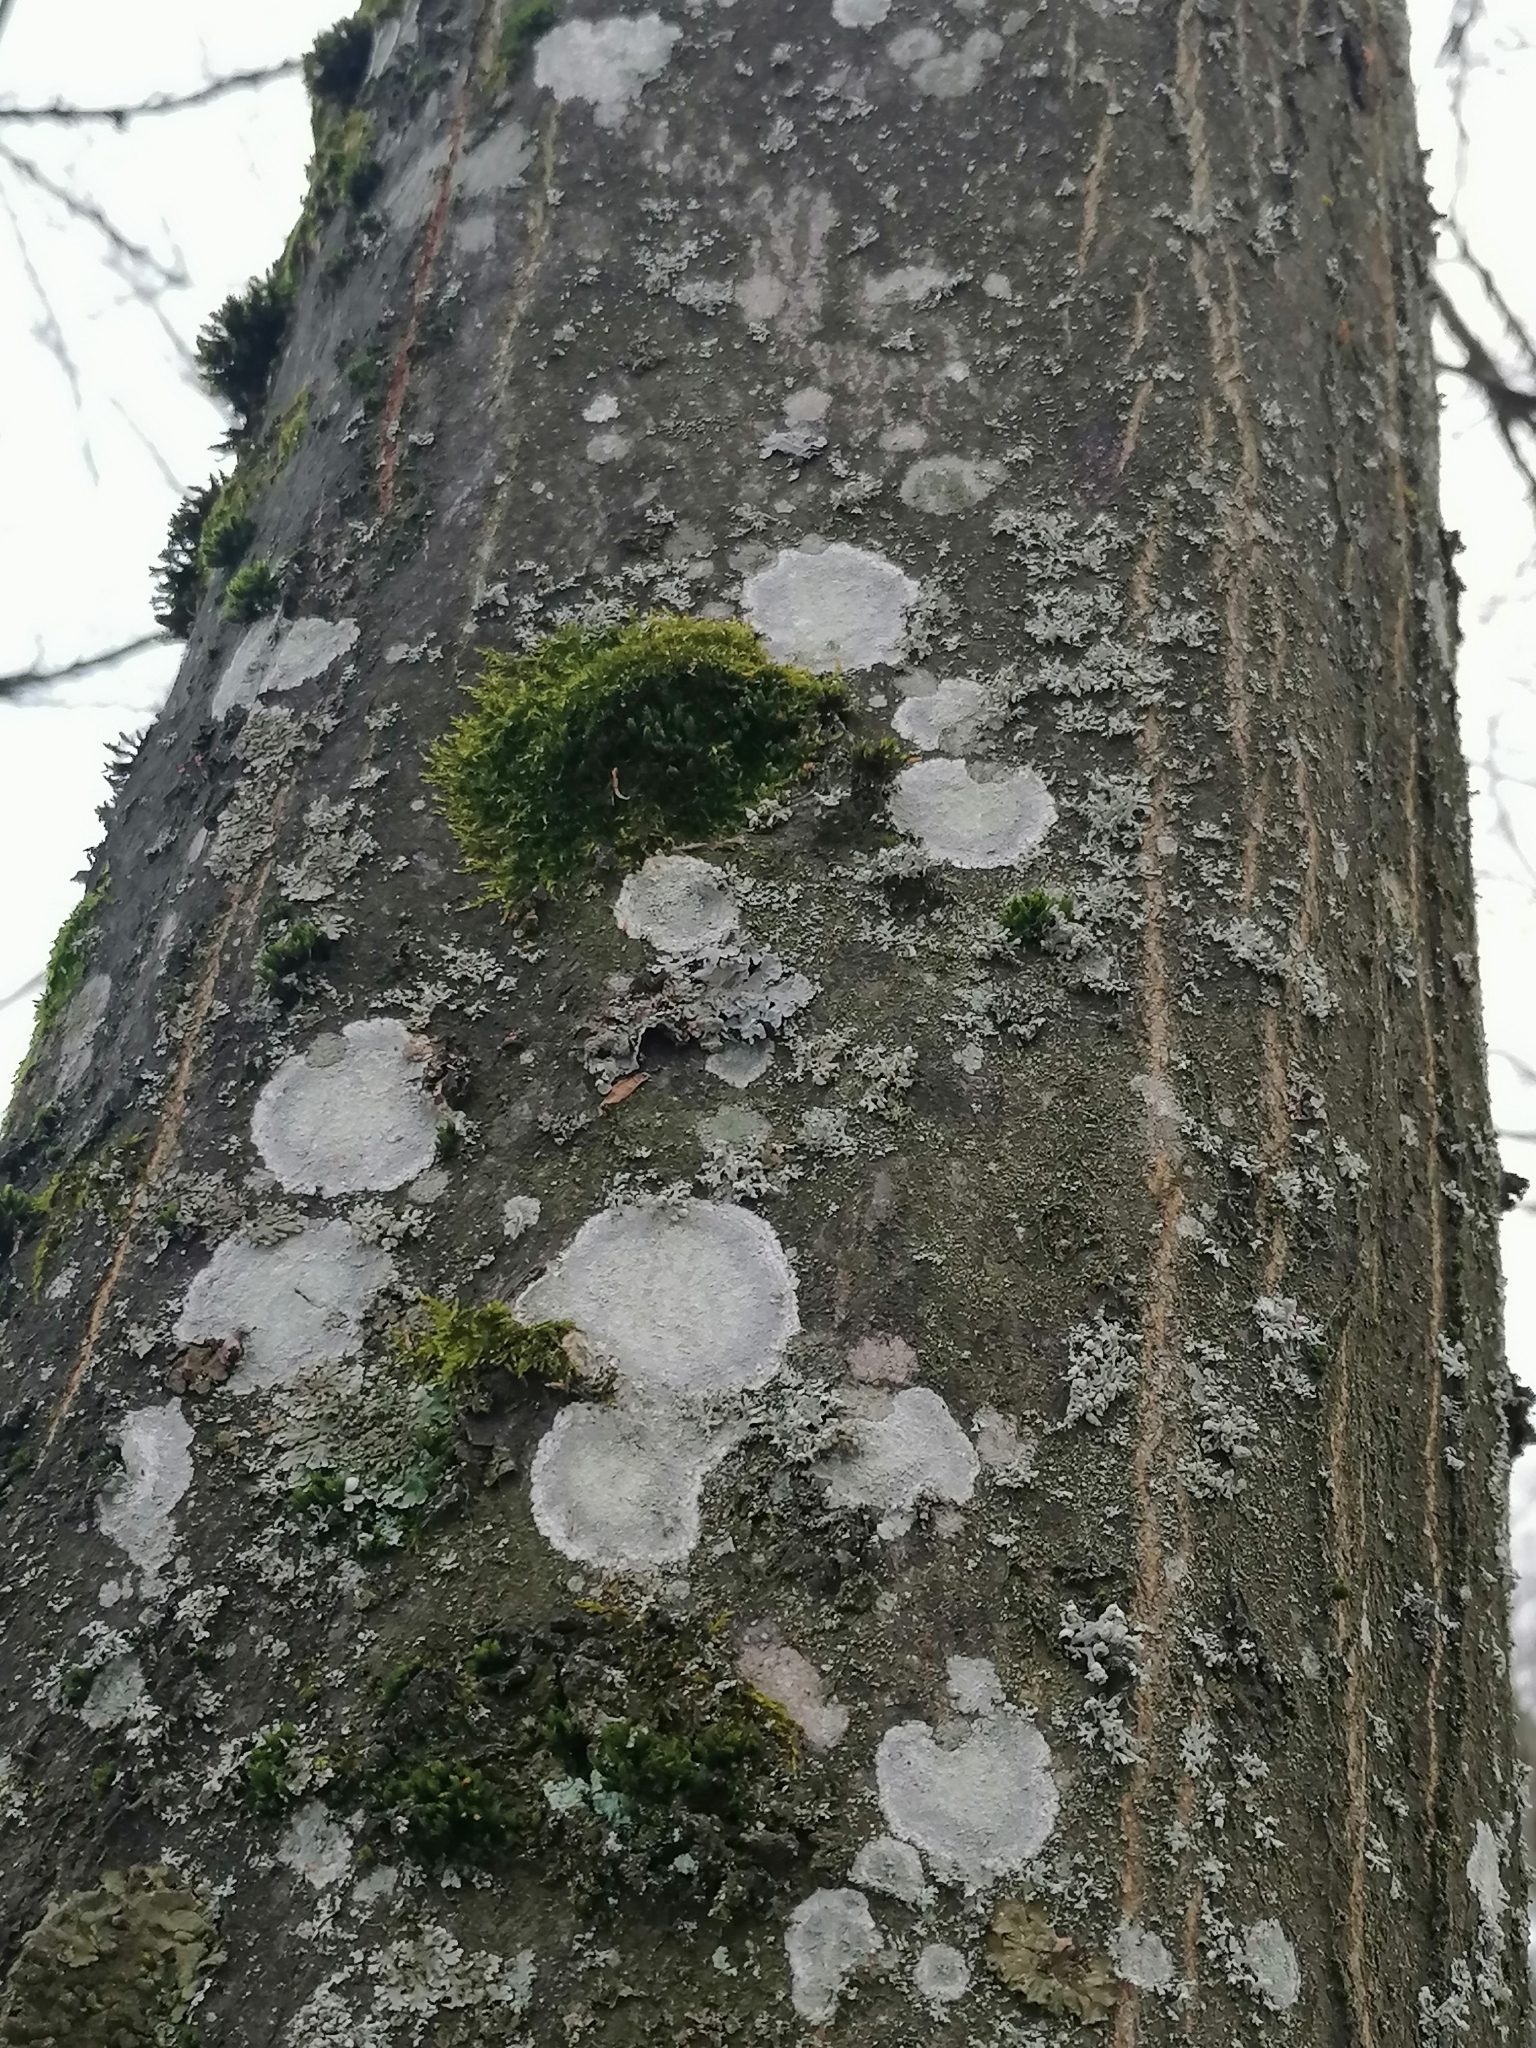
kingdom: Fungi
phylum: Ascomycota
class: Lecanoromycetes
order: Ostropales
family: Phlyctidaceae
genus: Phlyctis
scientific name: Phlyctis argena
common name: Whitewash lichen
